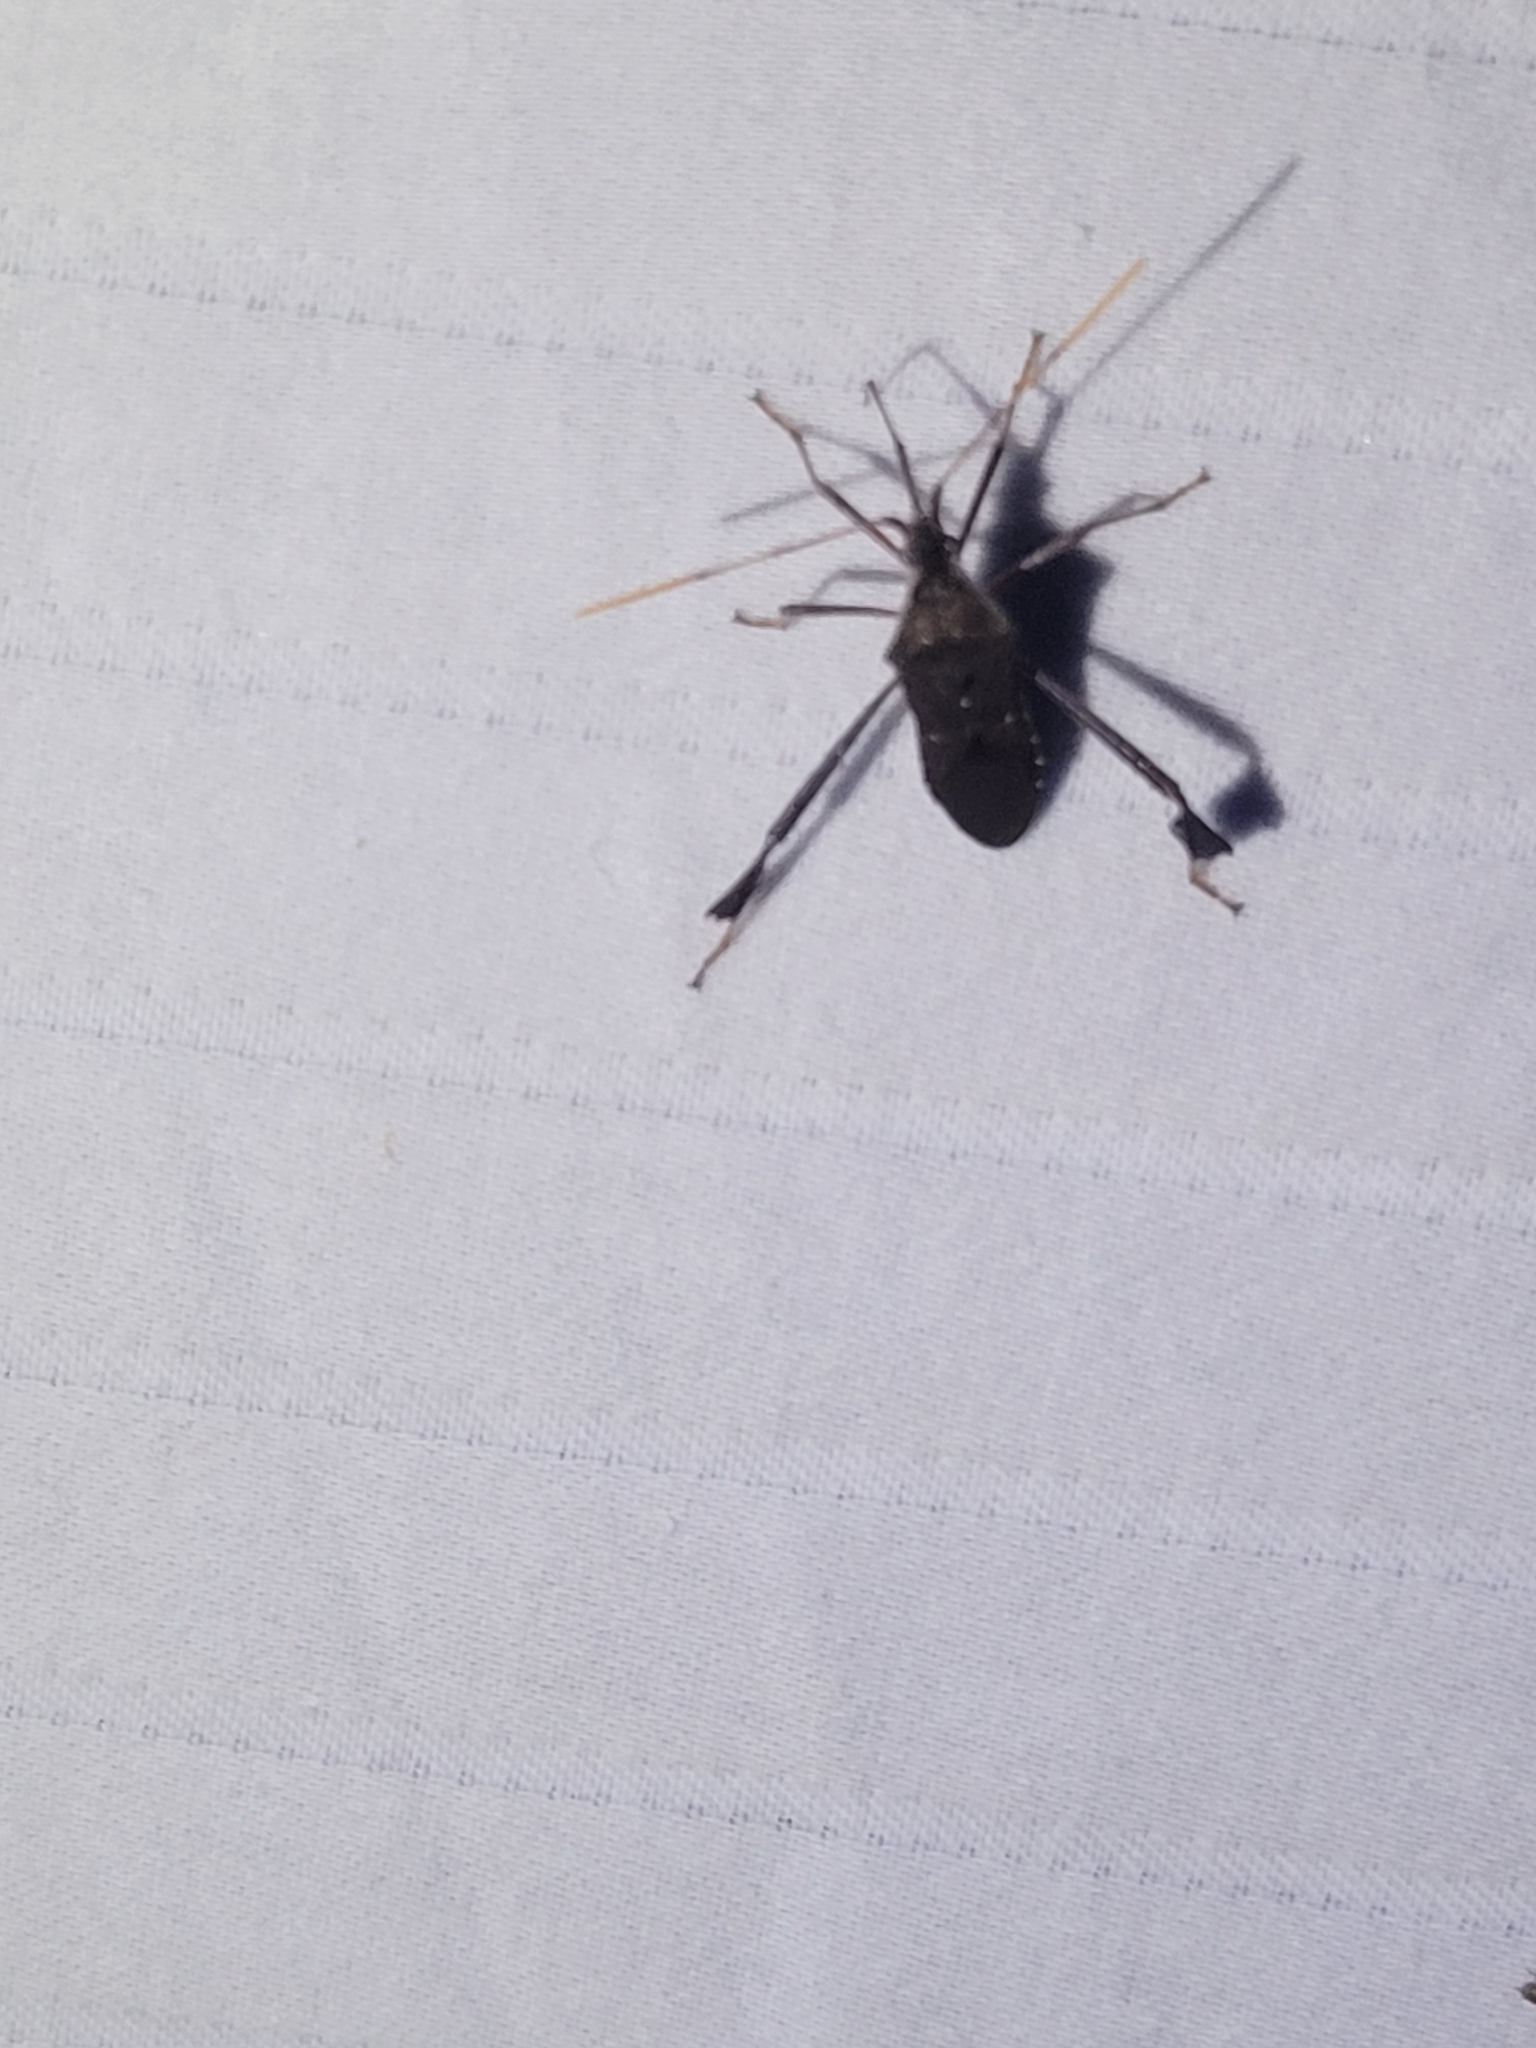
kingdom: Animalia
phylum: Arthropoda
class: Insecta
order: Hemiptera
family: Coreidae
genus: Leptoglossus
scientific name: Leptoglossus oppositus
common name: Northern leaf-footed bug
